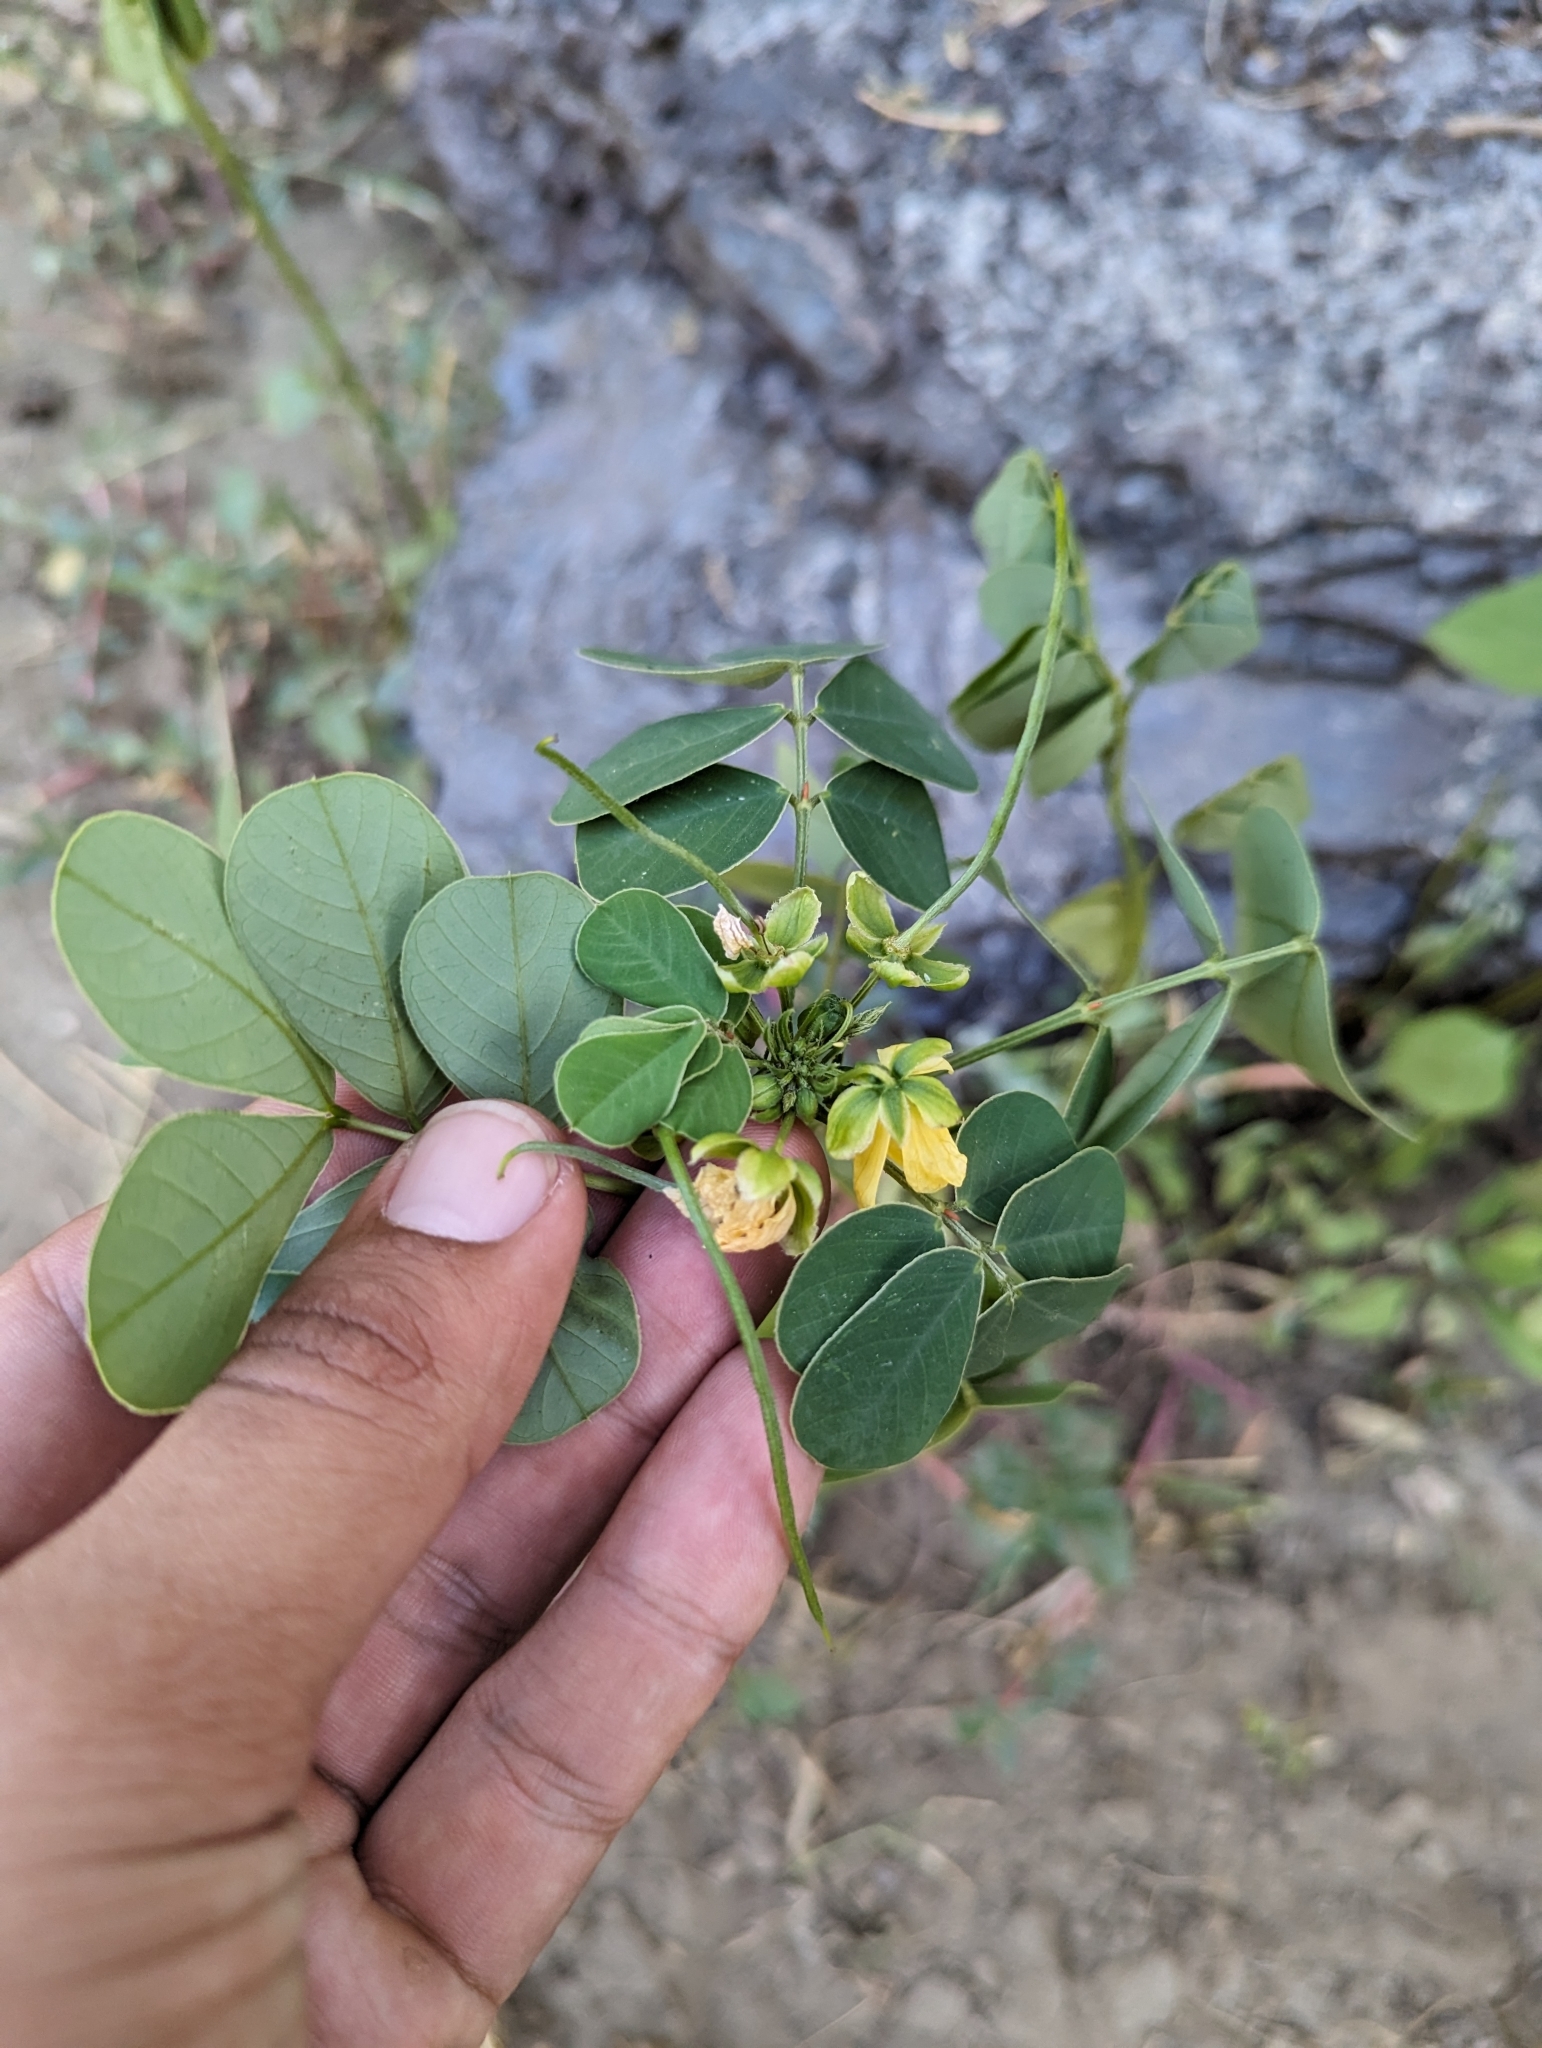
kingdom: Plantae
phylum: Tracheophyta
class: Magnoliopsida
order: Fabales
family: Fabaceae
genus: Senna
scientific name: Senna obtusifolia
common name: Java-bean
